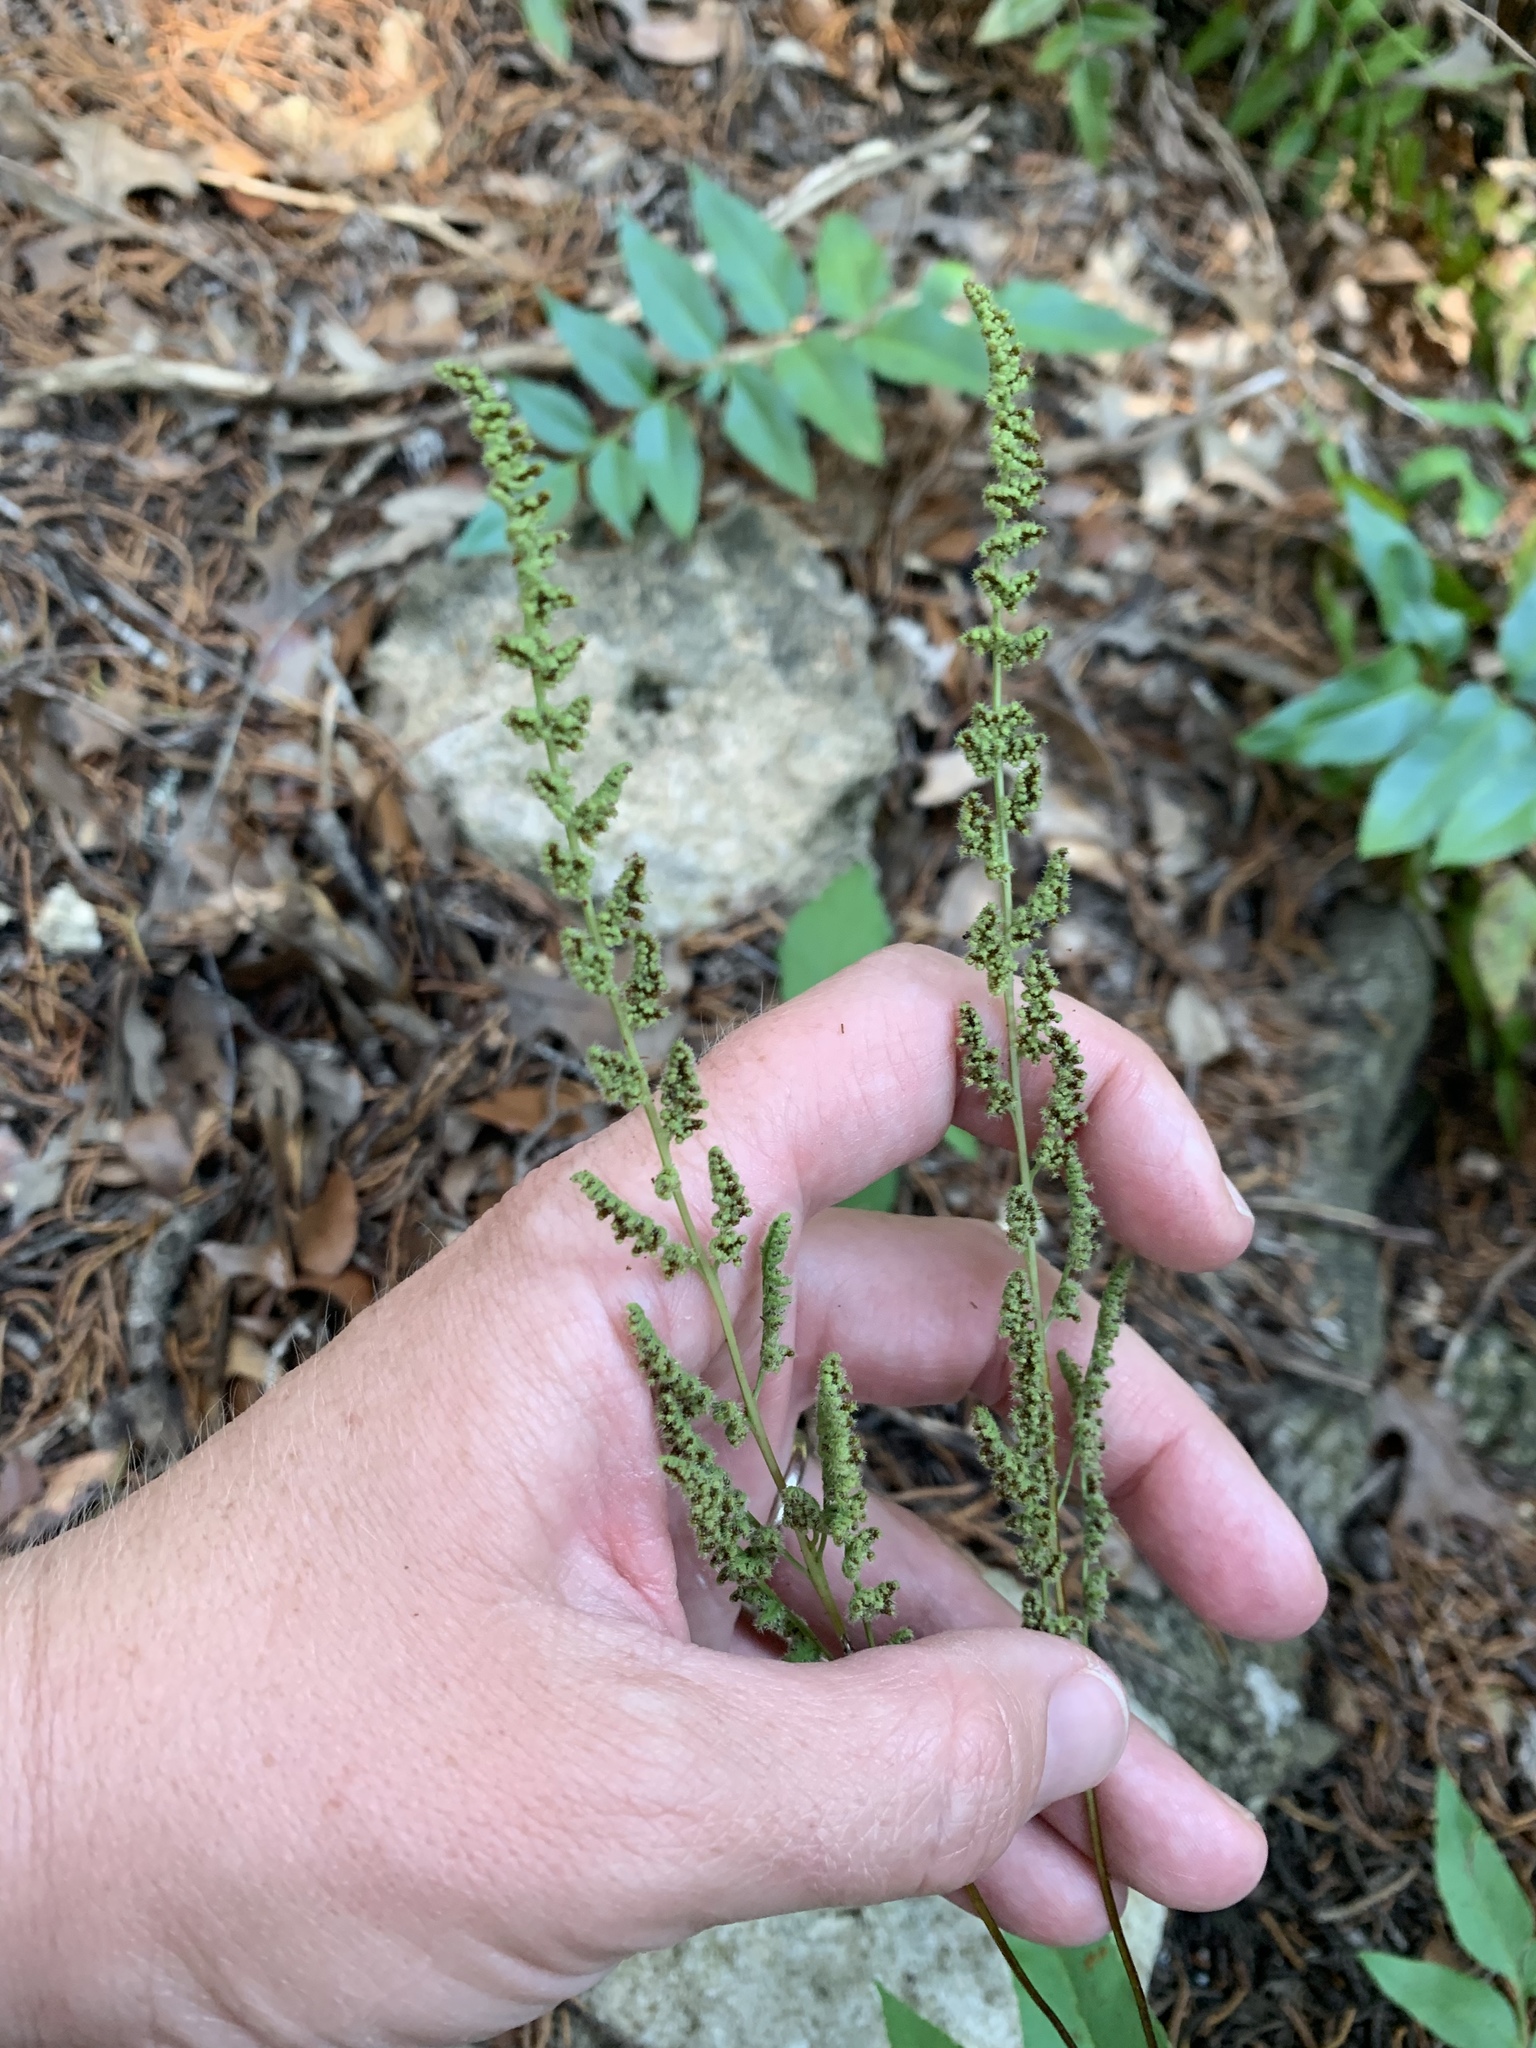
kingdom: Plantae
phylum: Tracheophyta
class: Polypodiopsida
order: Schizaeales
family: Anemiaceae
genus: Anemia
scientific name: Anemia mexicana
